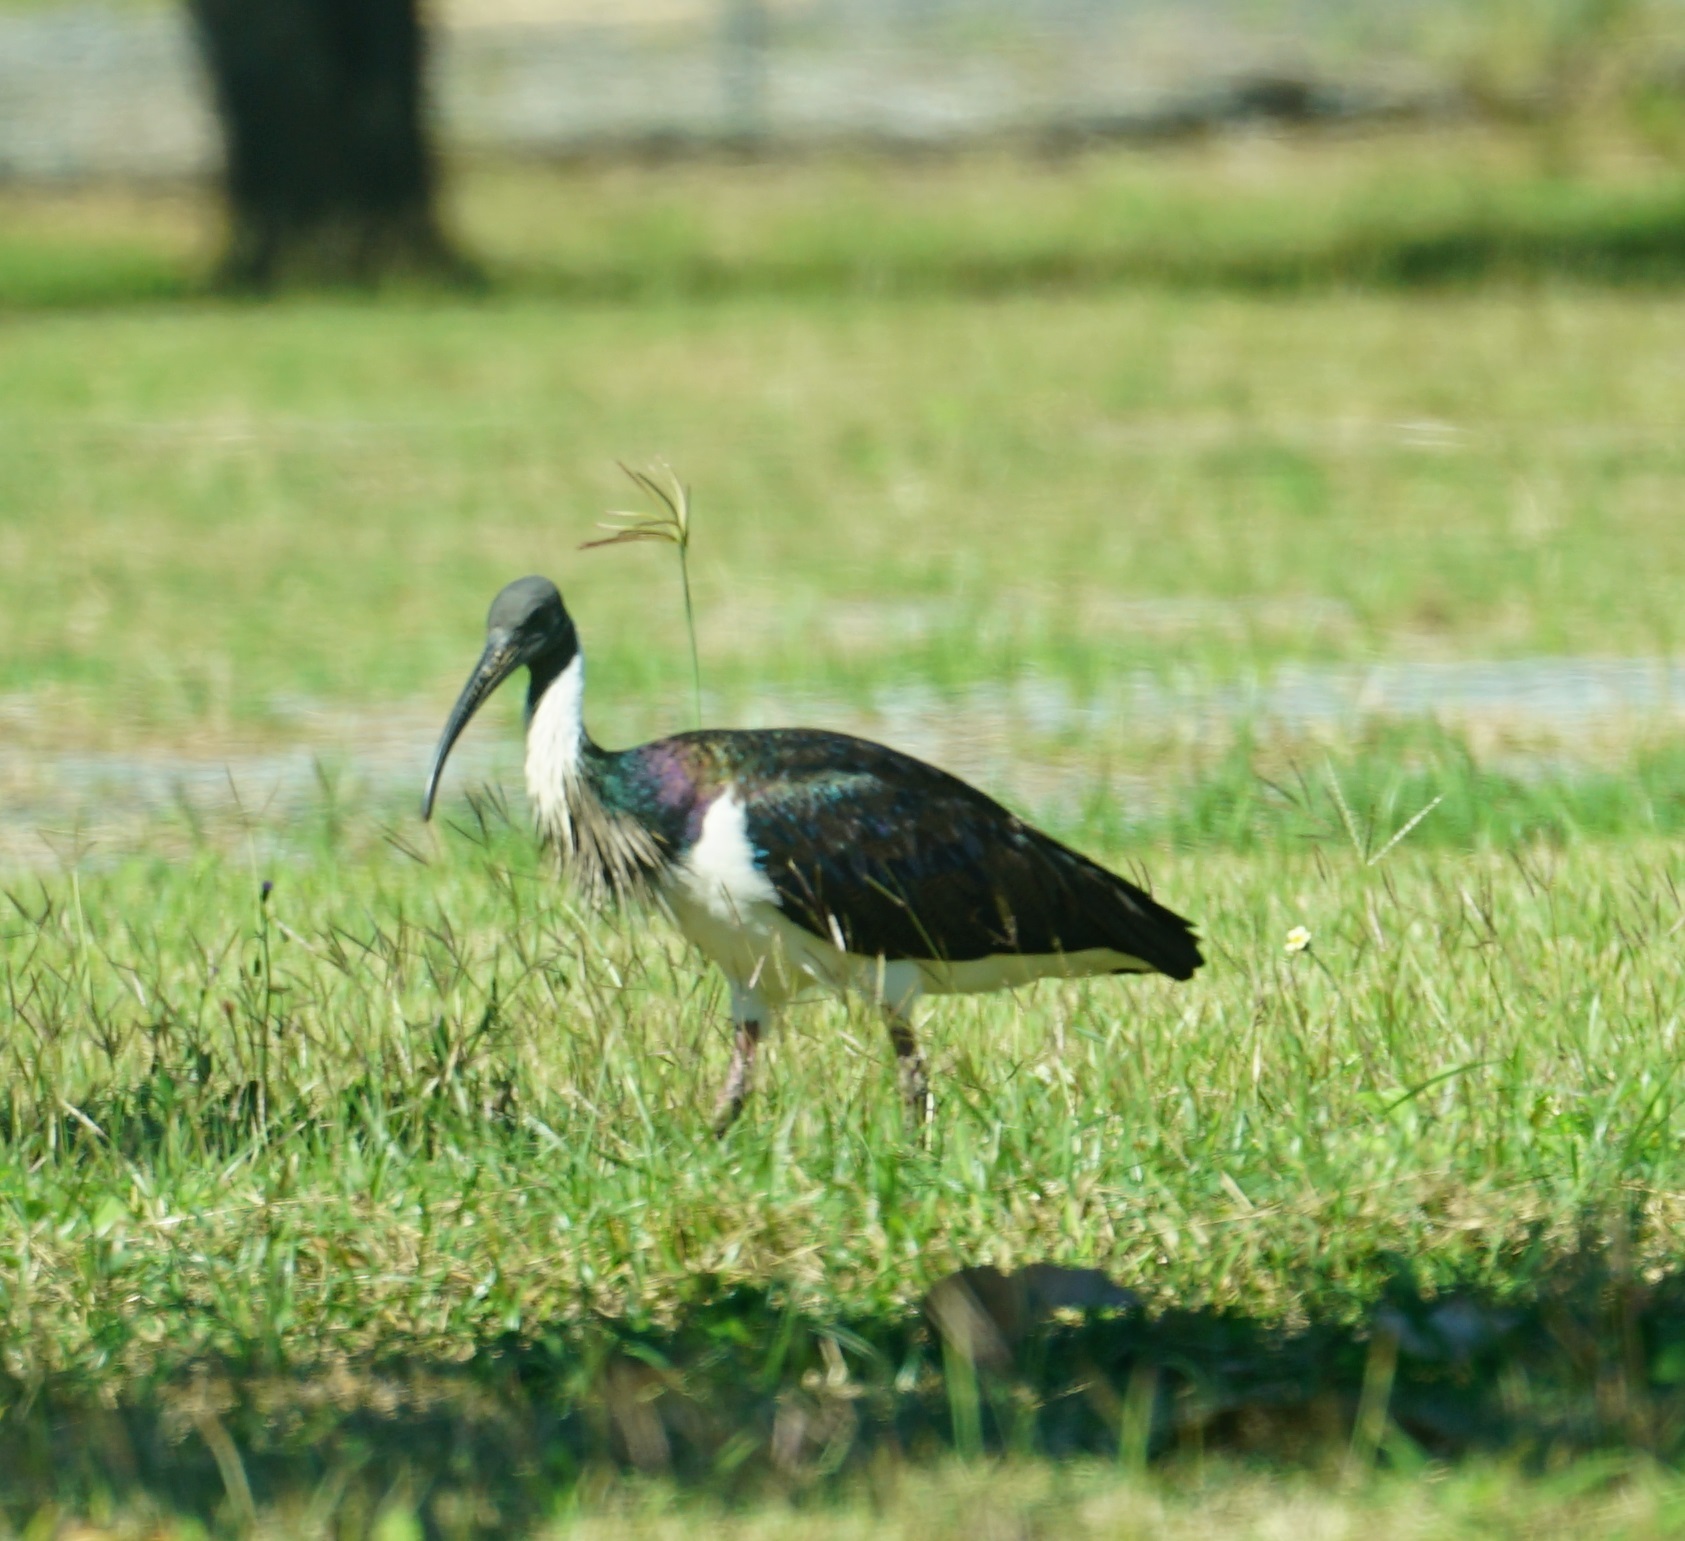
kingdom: Animalia
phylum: Chordata
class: Aves
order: Pelecaniformes
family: Threskiornithidae
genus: Threskiornis
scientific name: Threskiornis spinicollis
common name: Straw-necked ibis
